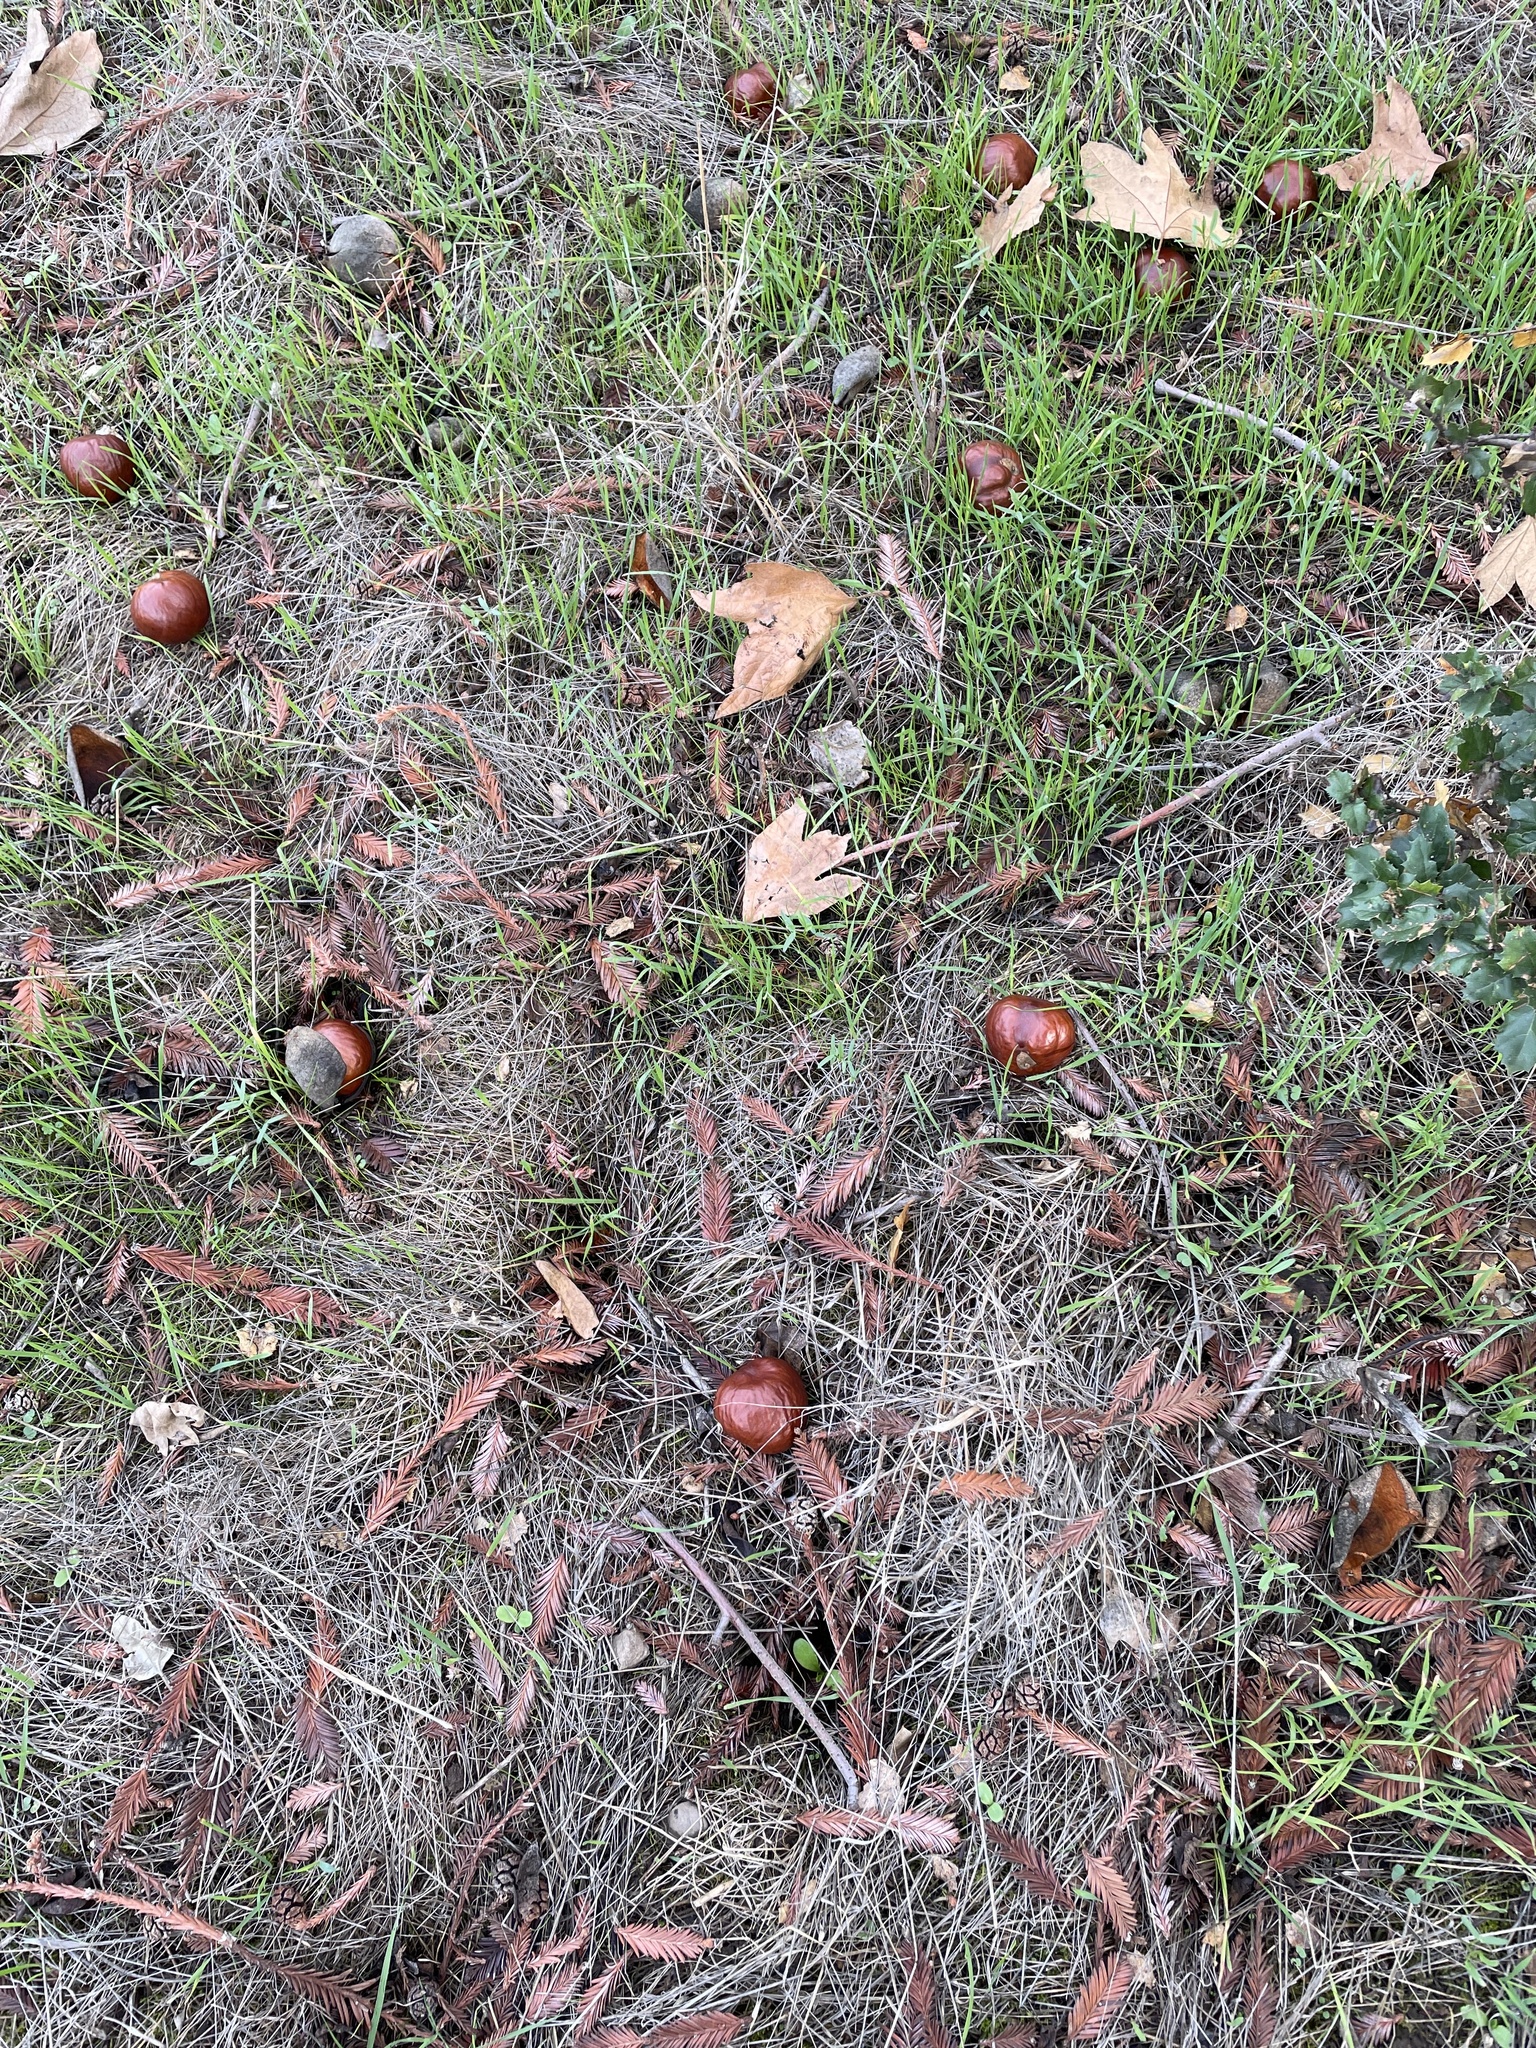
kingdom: Plantae
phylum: Tracheophyta
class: Magnoliopsida
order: Sapindales
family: Sapindaceae
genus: Aesculus
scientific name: Aesculus californica
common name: California buckeye
